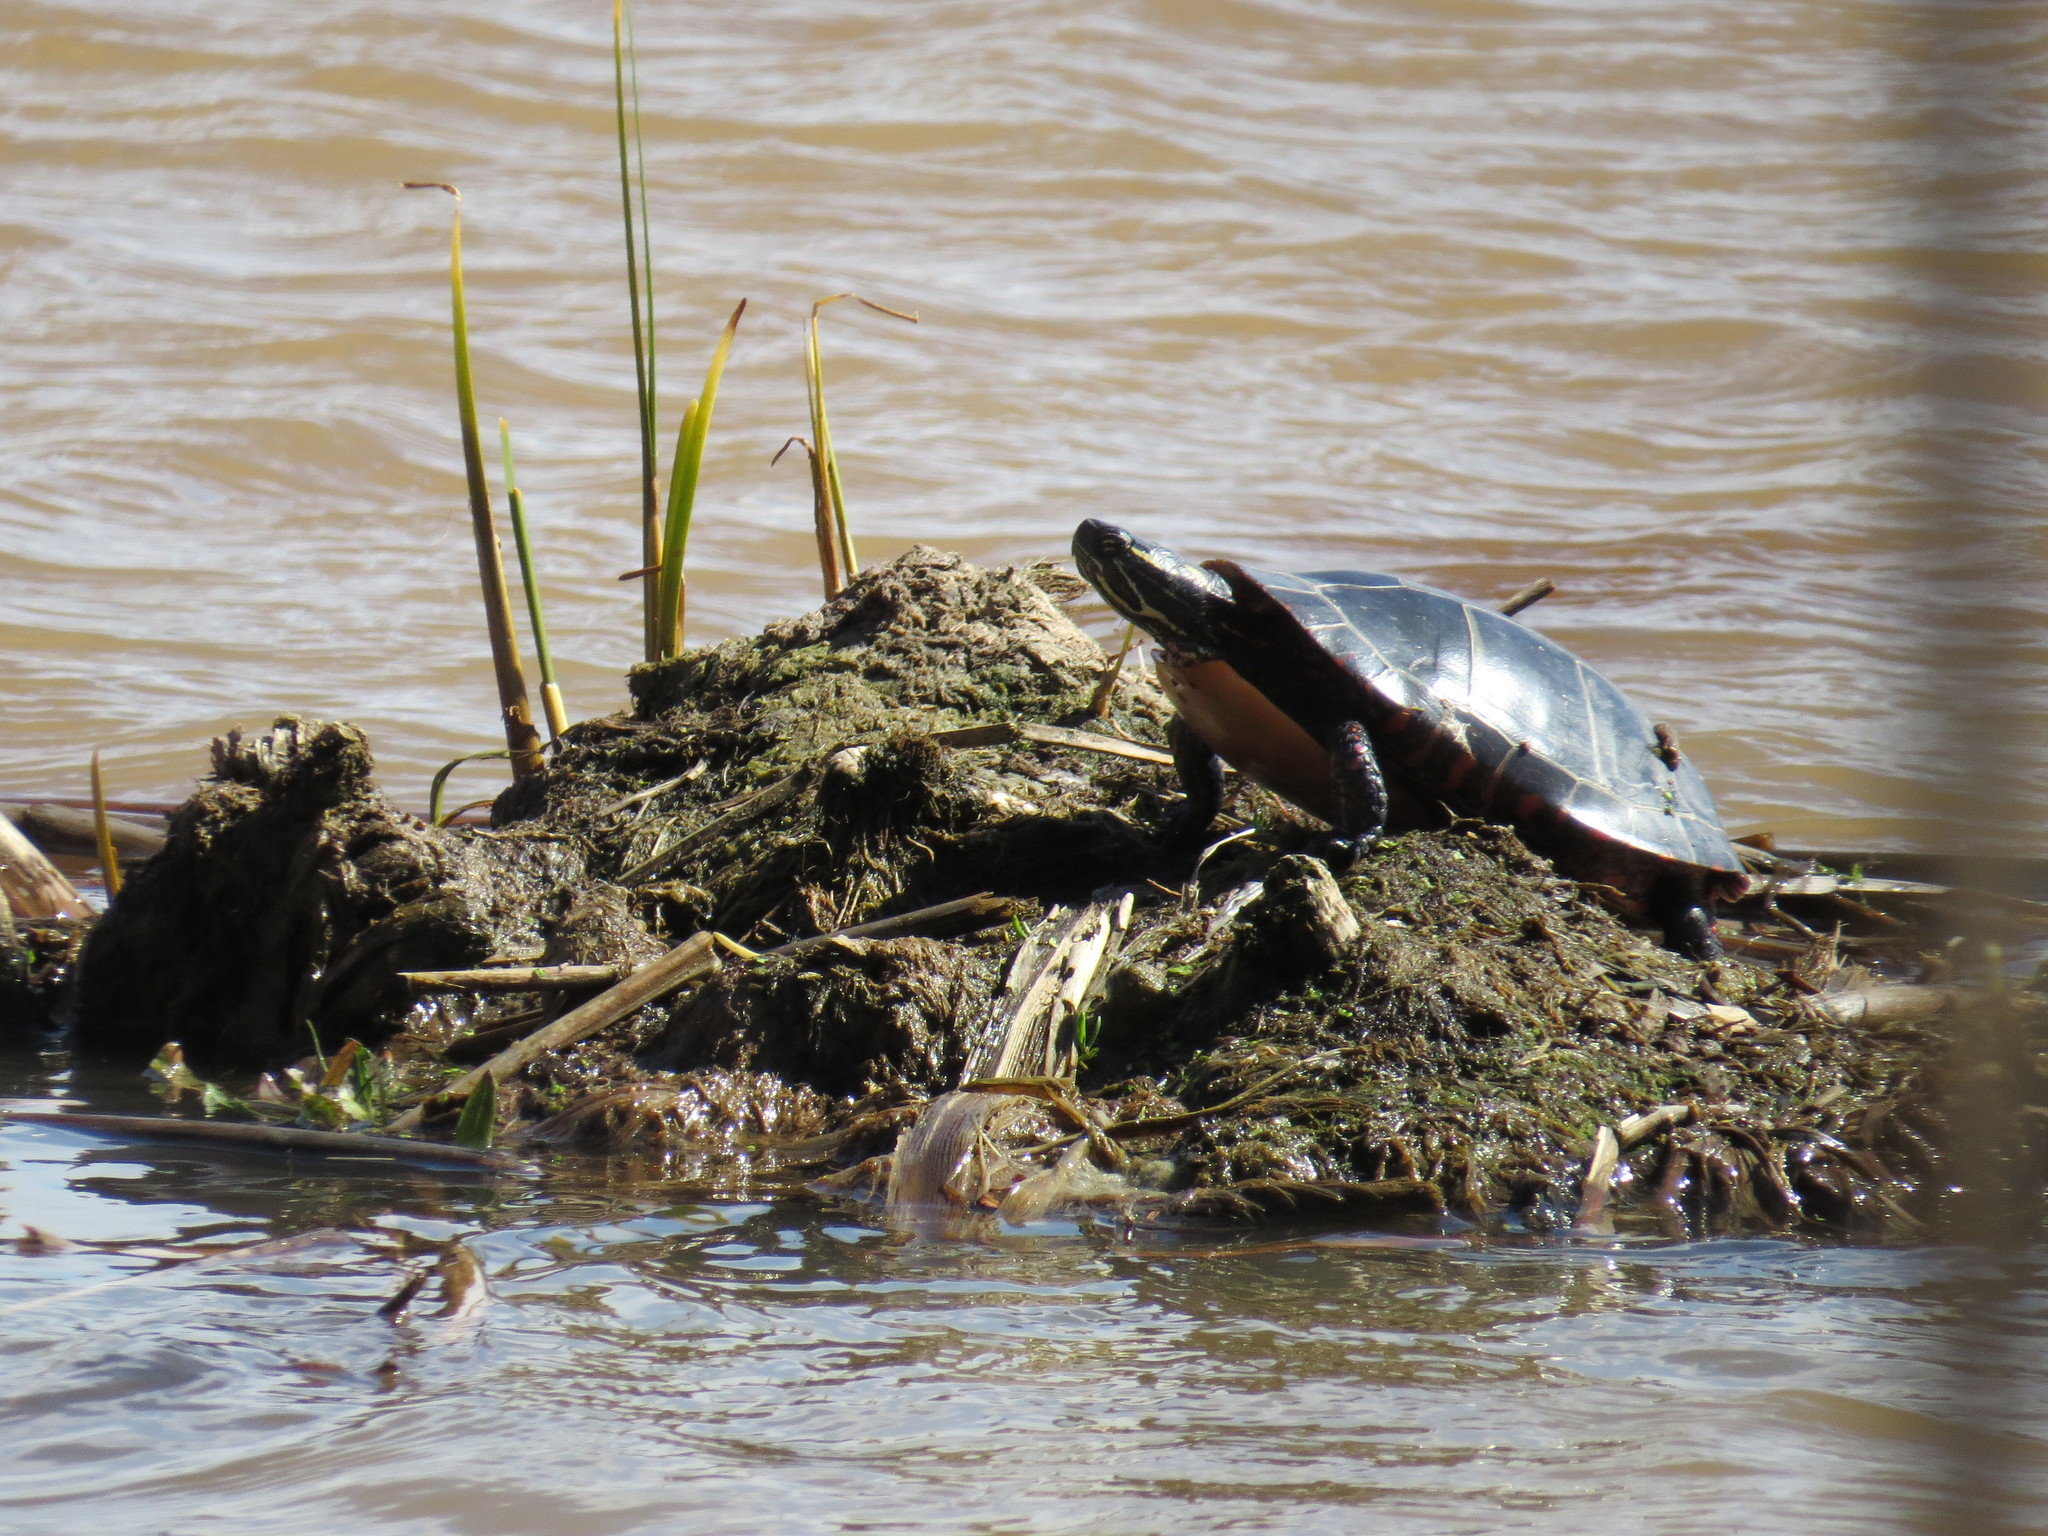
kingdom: Animalia
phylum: Chordata
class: Testudines
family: Emydidae
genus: Chrysemys
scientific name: Chrysemys picta
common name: Painted turtle
